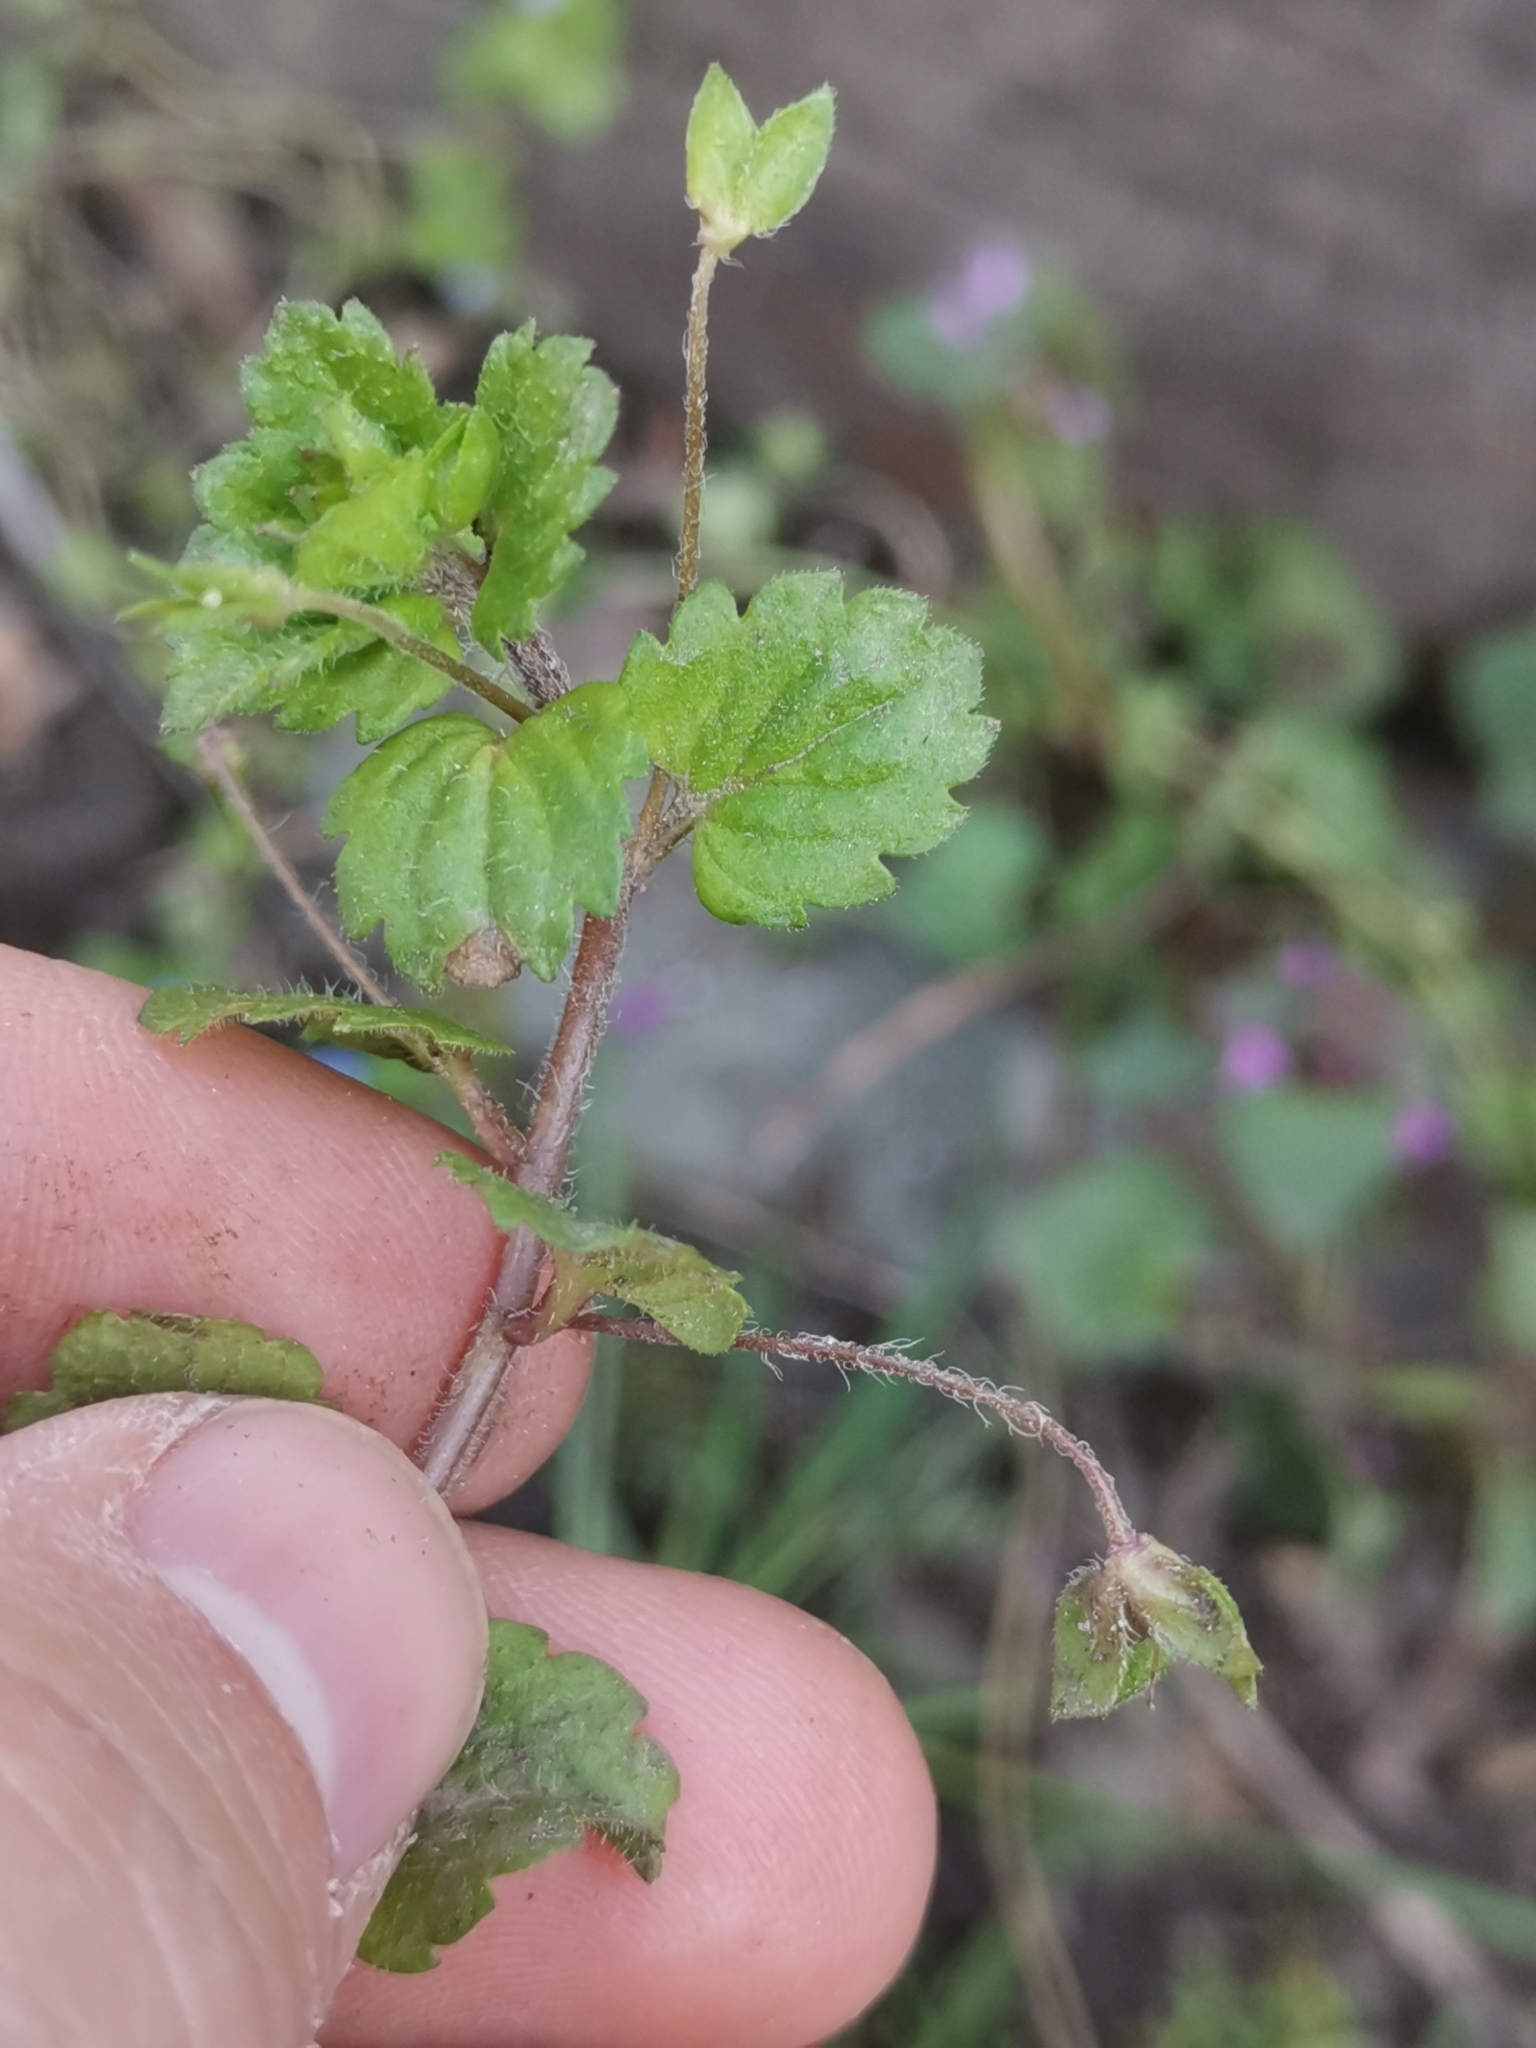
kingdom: Plantae
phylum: Tracheophyta
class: Magnoliopsida
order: Lamiales
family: Plantaginaceae
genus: Veronica
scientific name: Veronica persica
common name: Common field-speedwell
